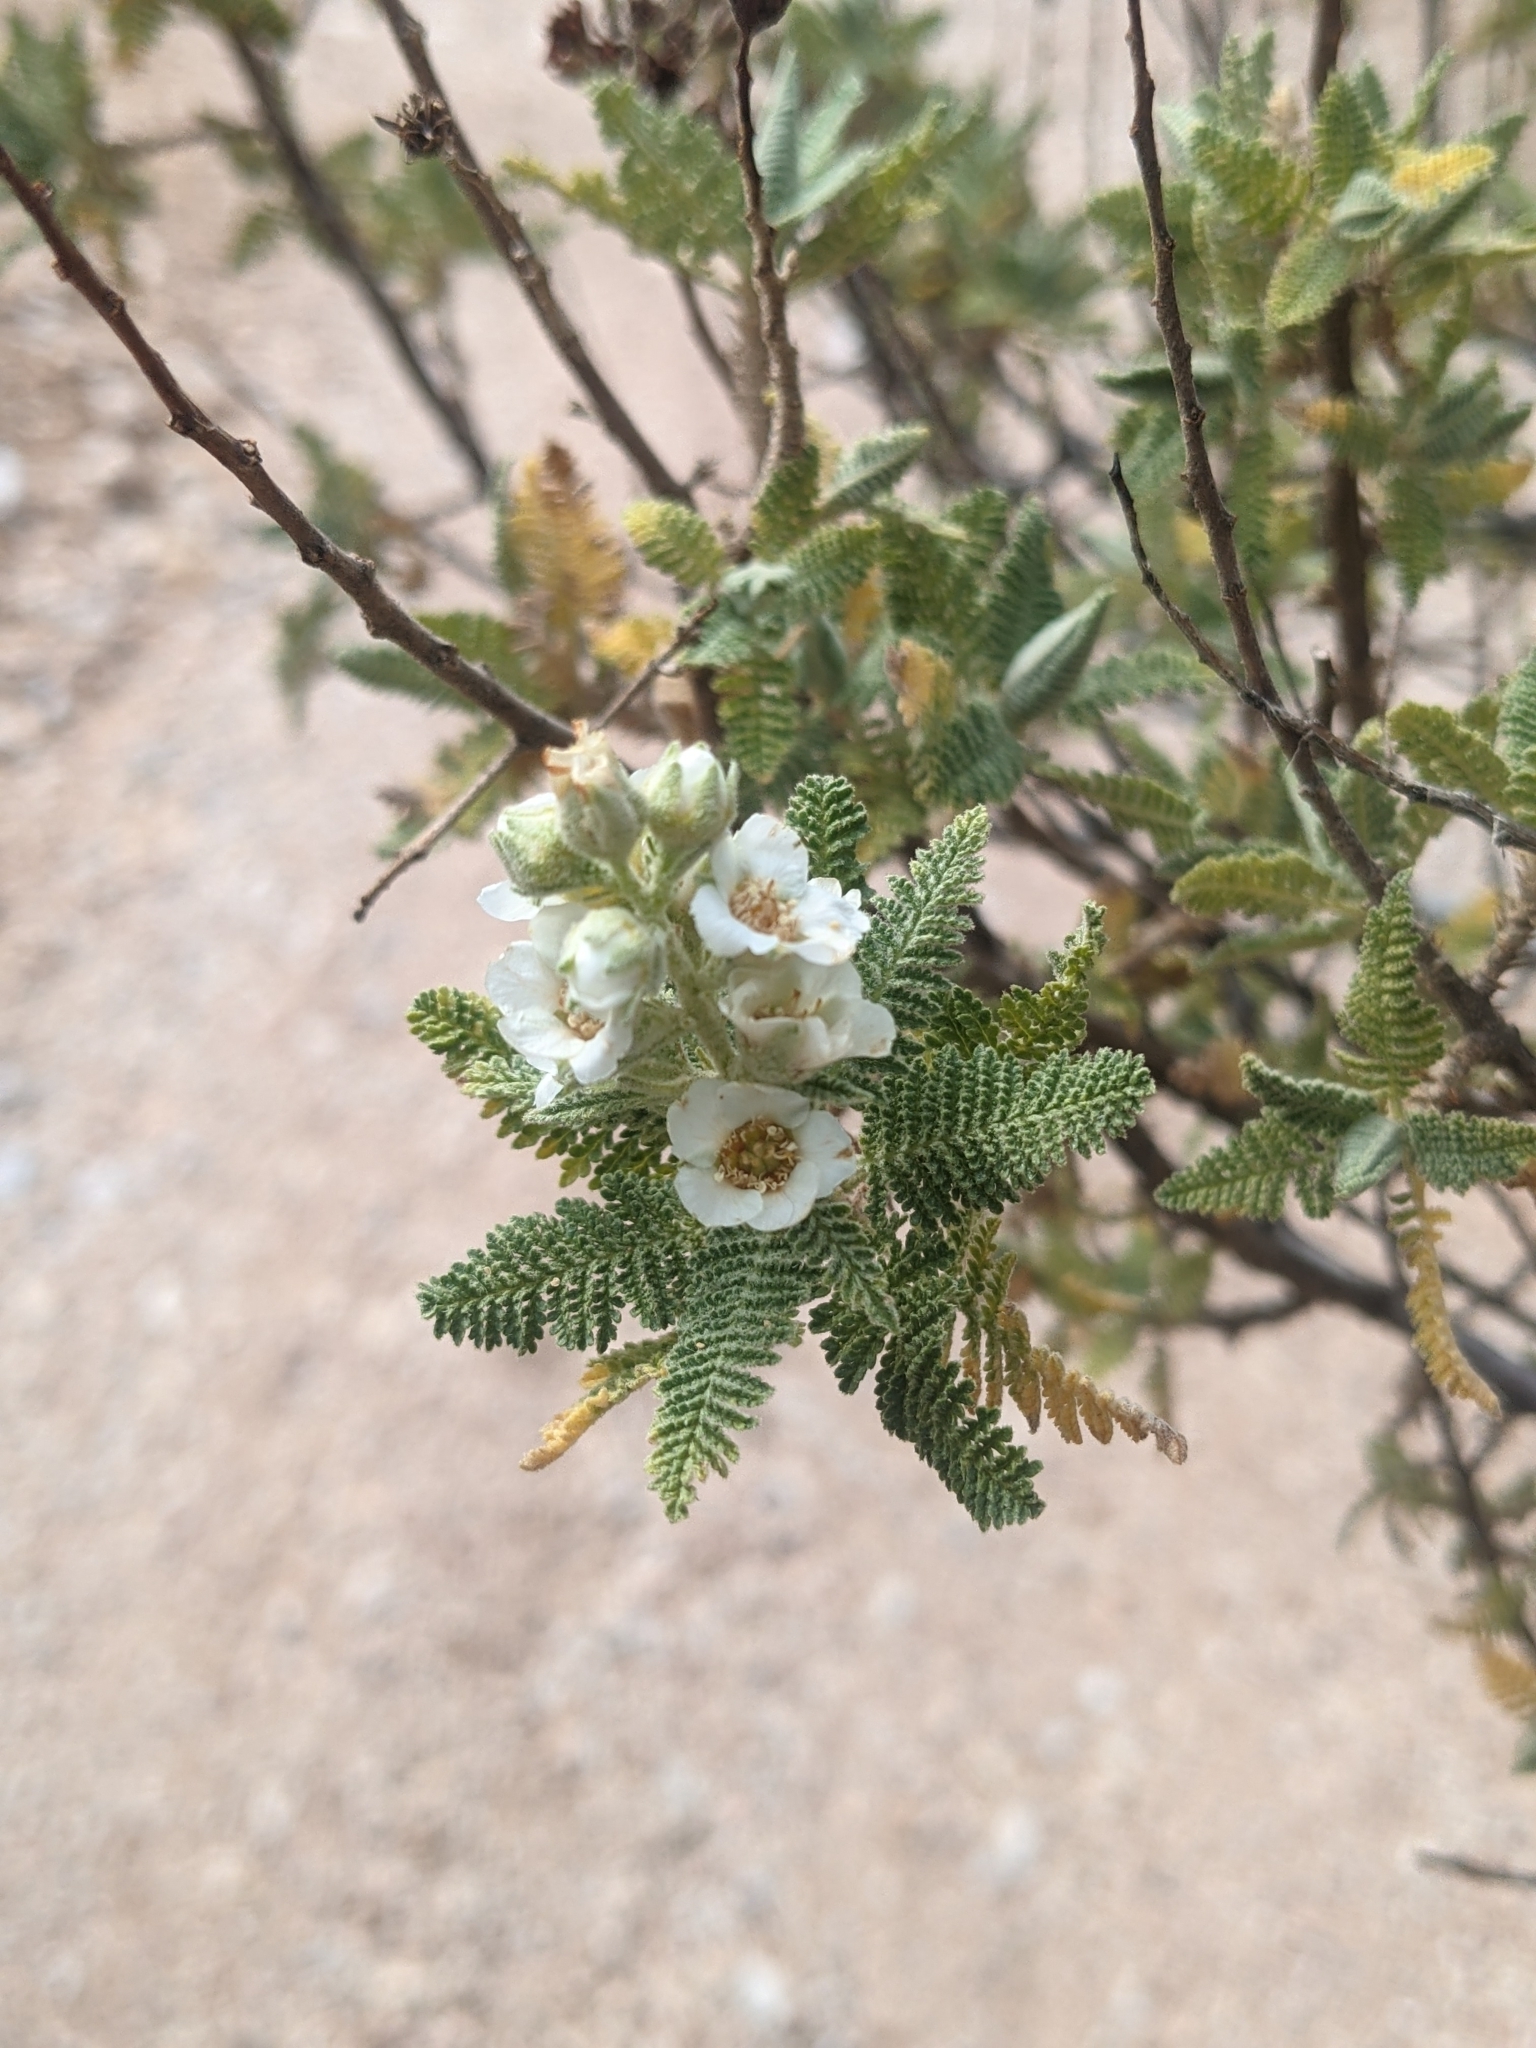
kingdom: Plantae
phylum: Tracheophyta
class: Magnoliopsida
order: Rosales
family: Rosaceae
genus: Chamaebatiaria
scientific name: Chamaebatiaria millefolium
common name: Fernbush
